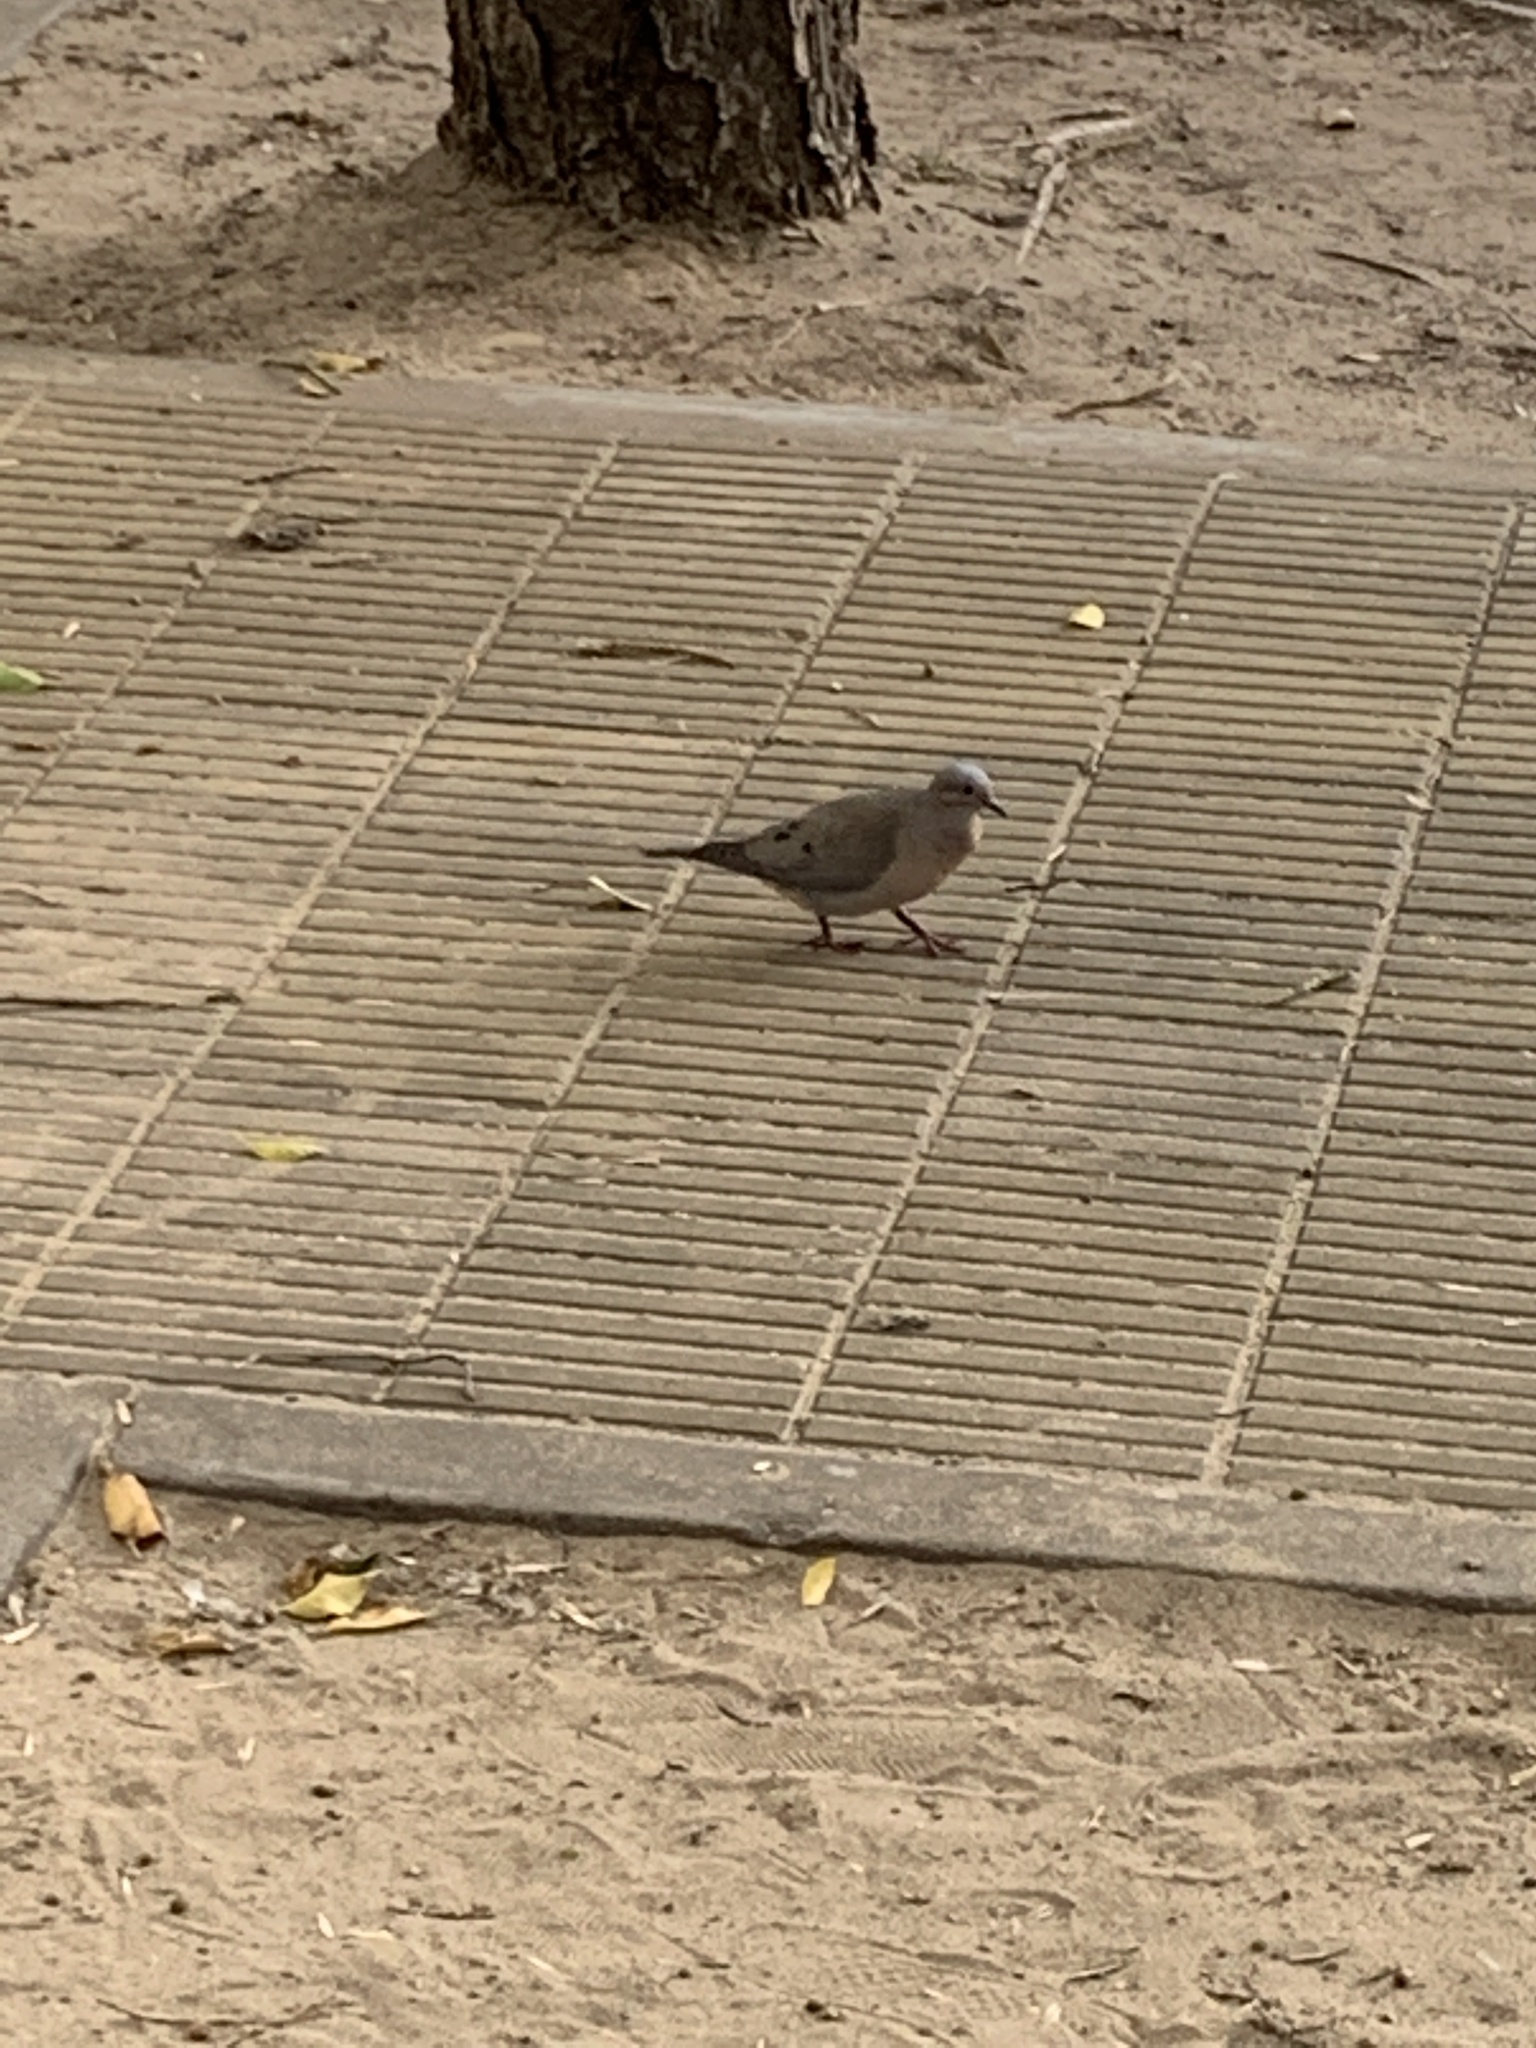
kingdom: Animalia
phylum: Chordata
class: Aves
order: Columbiformes
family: Columbidae
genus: Zenaida
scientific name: Zenaida auriculata
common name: Eared dove
